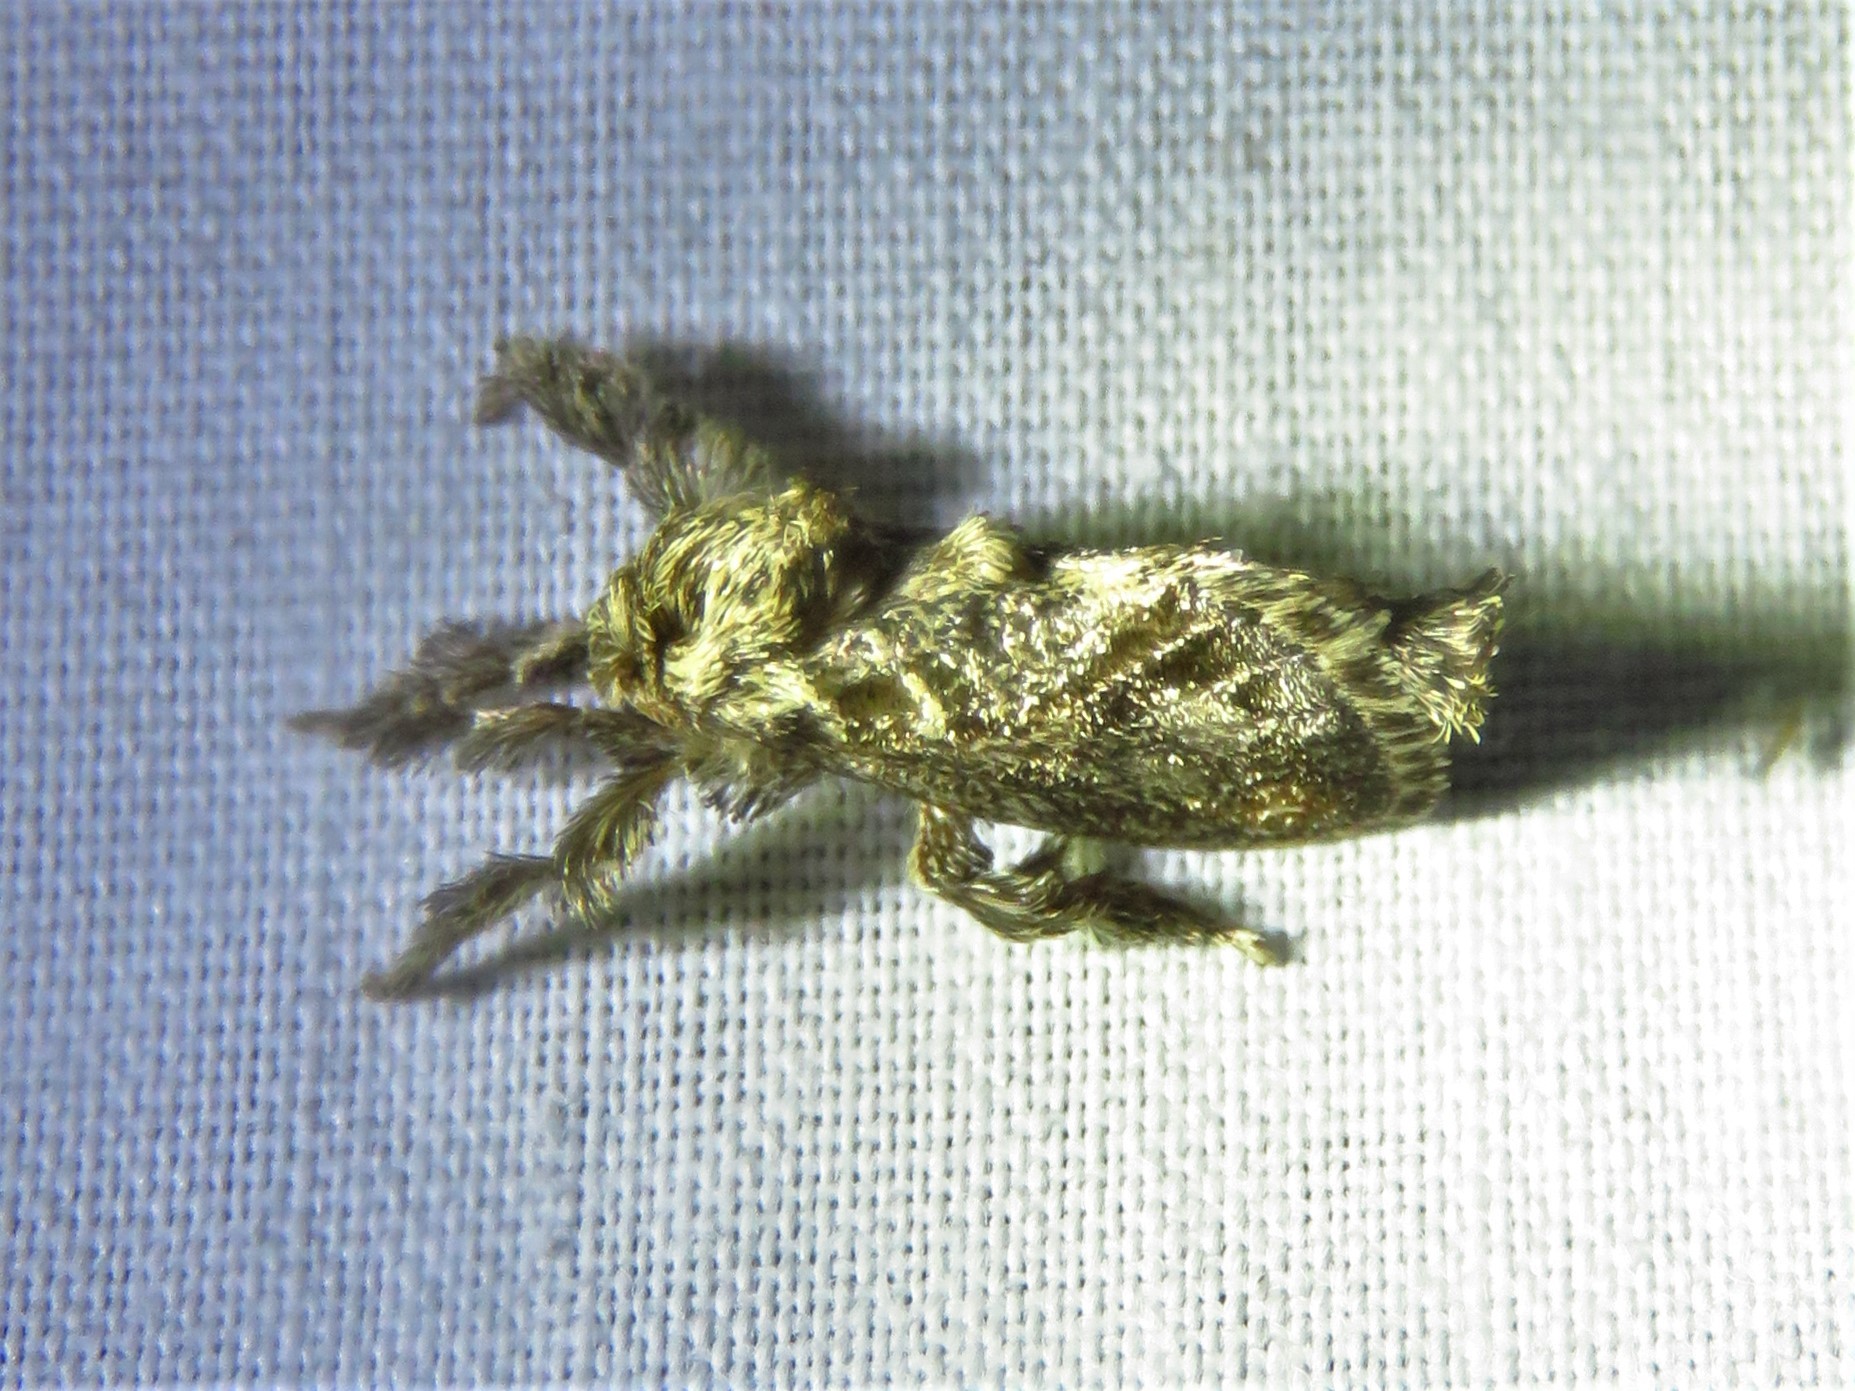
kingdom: Animalia
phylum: Arthropoda
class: Insecta
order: Lepidoptera
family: Limacodidae
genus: Euclea
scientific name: Euclea plugma
